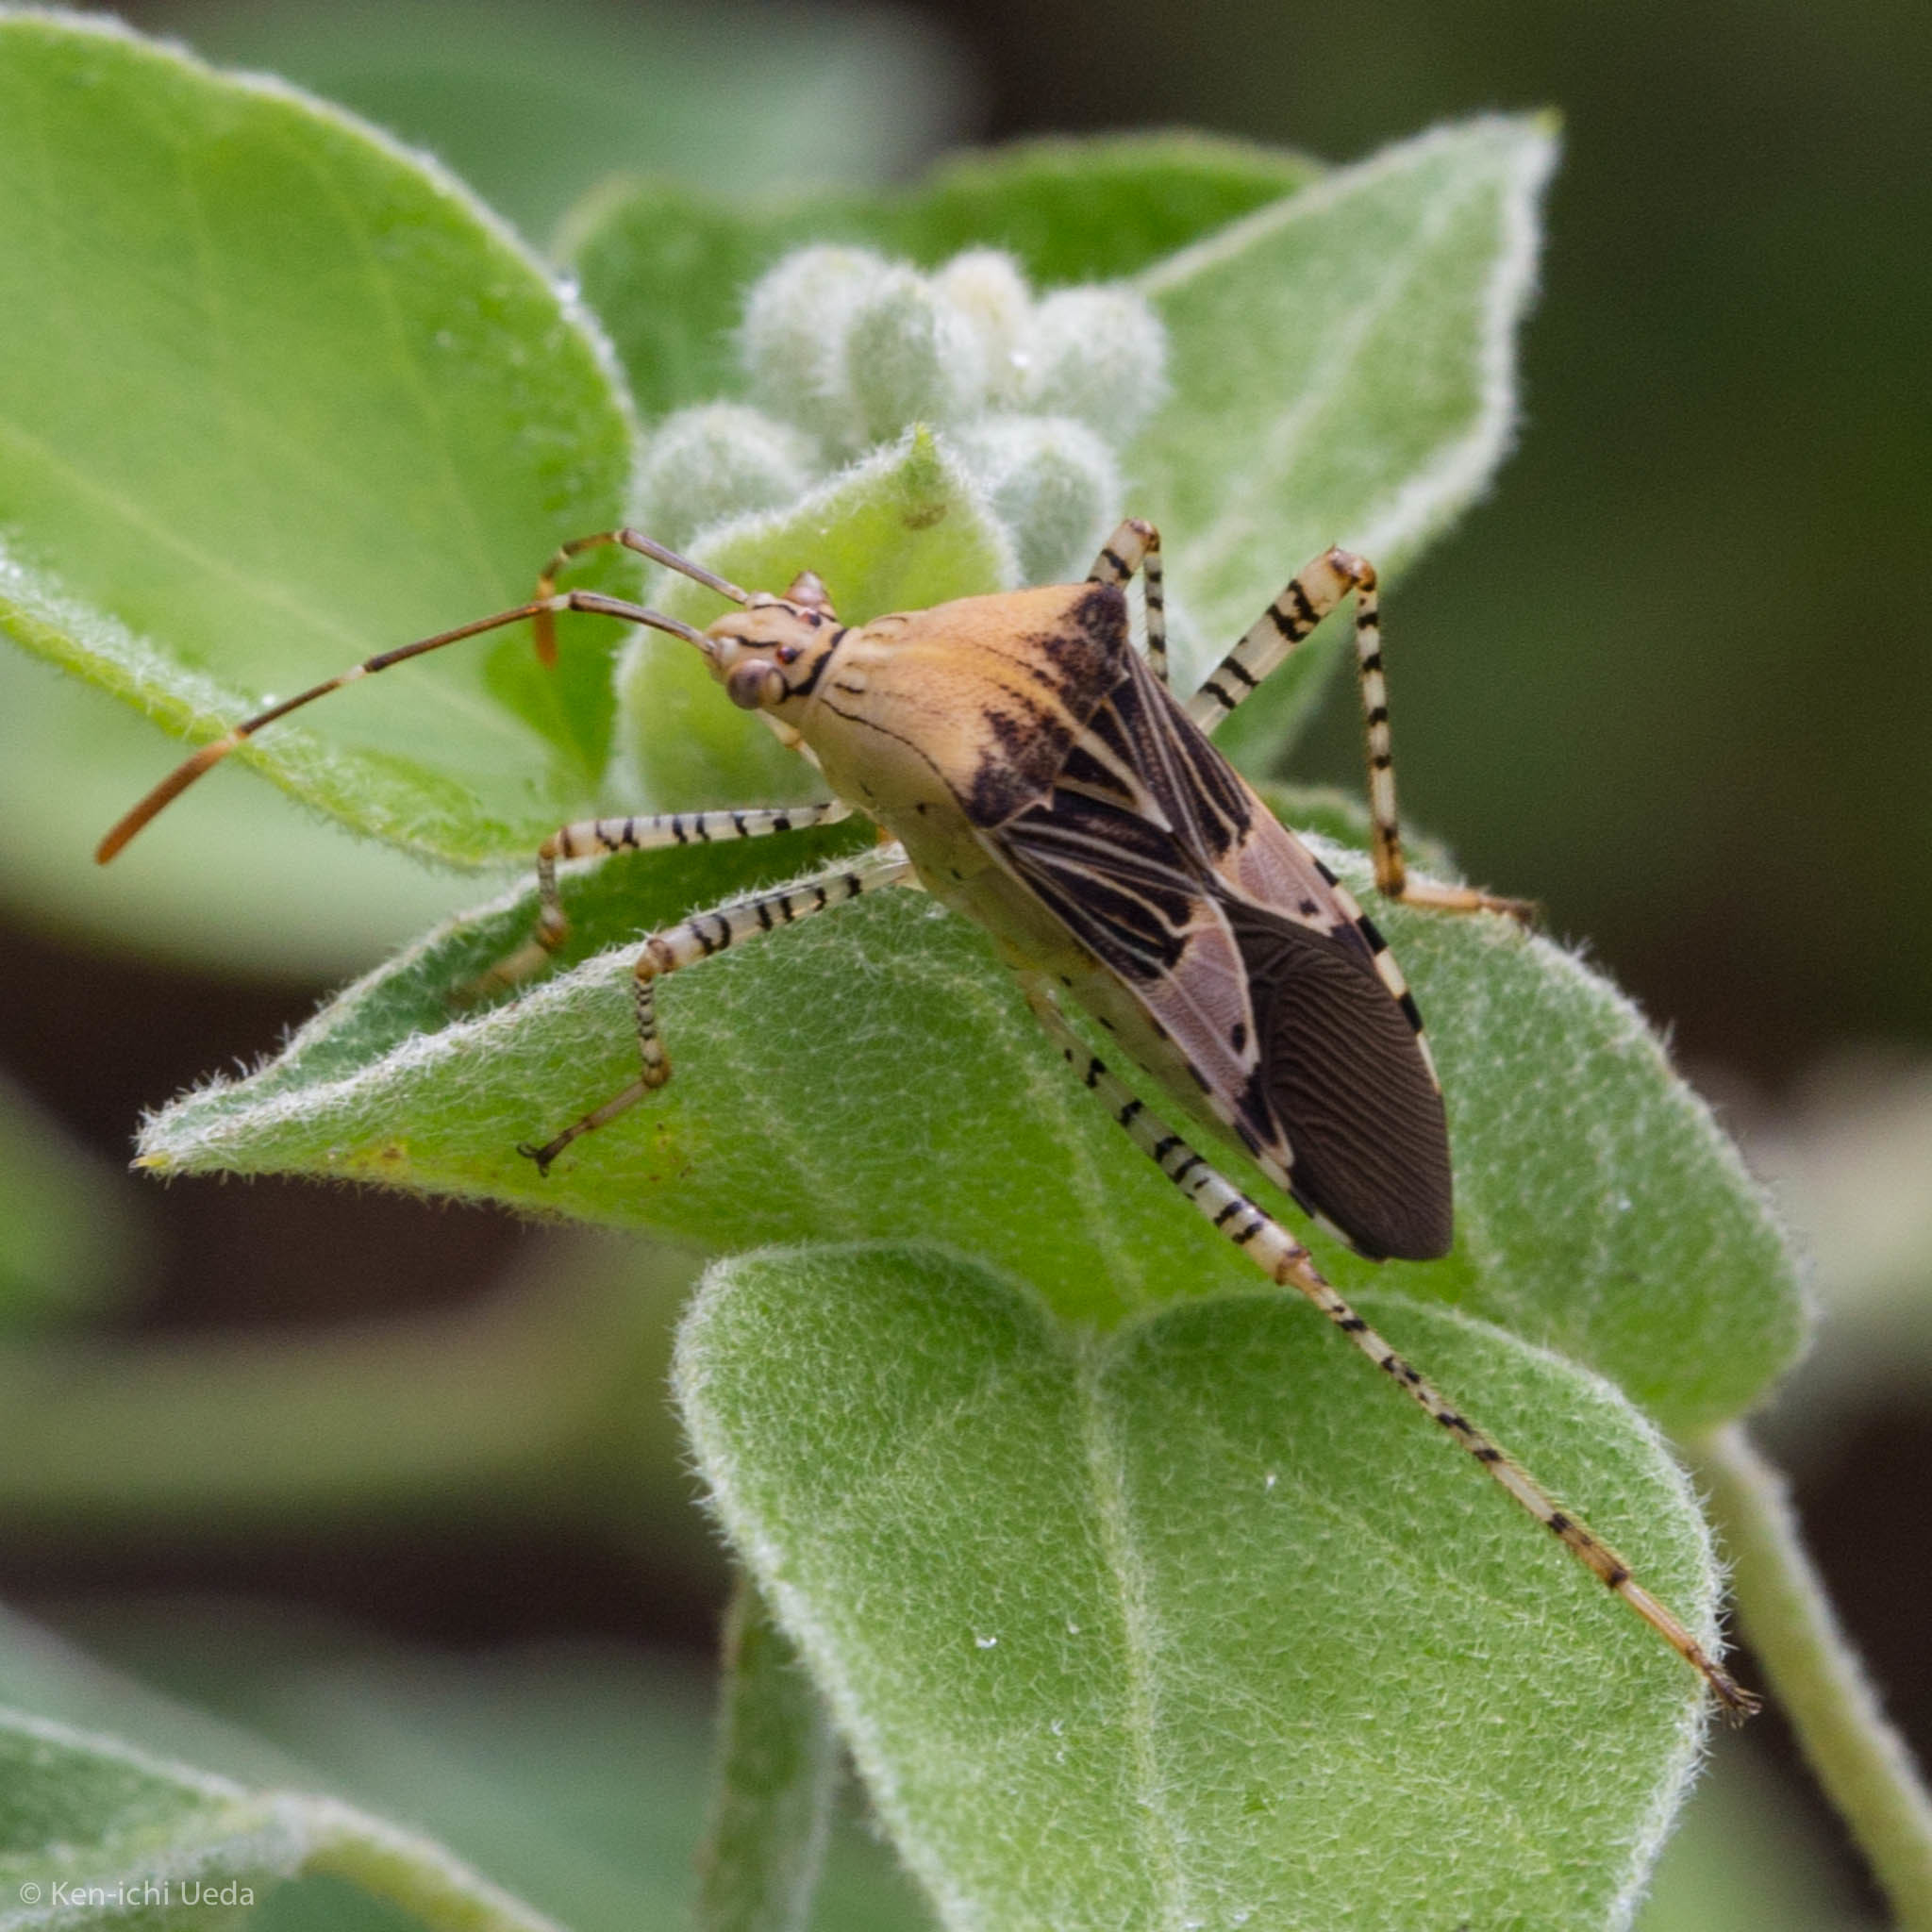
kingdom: Animalia
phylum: Arthropoda
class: Insecta
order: Hemiptera
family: Coreidae
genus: Hypselonotus
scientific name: Hypselonotus punctiventris
